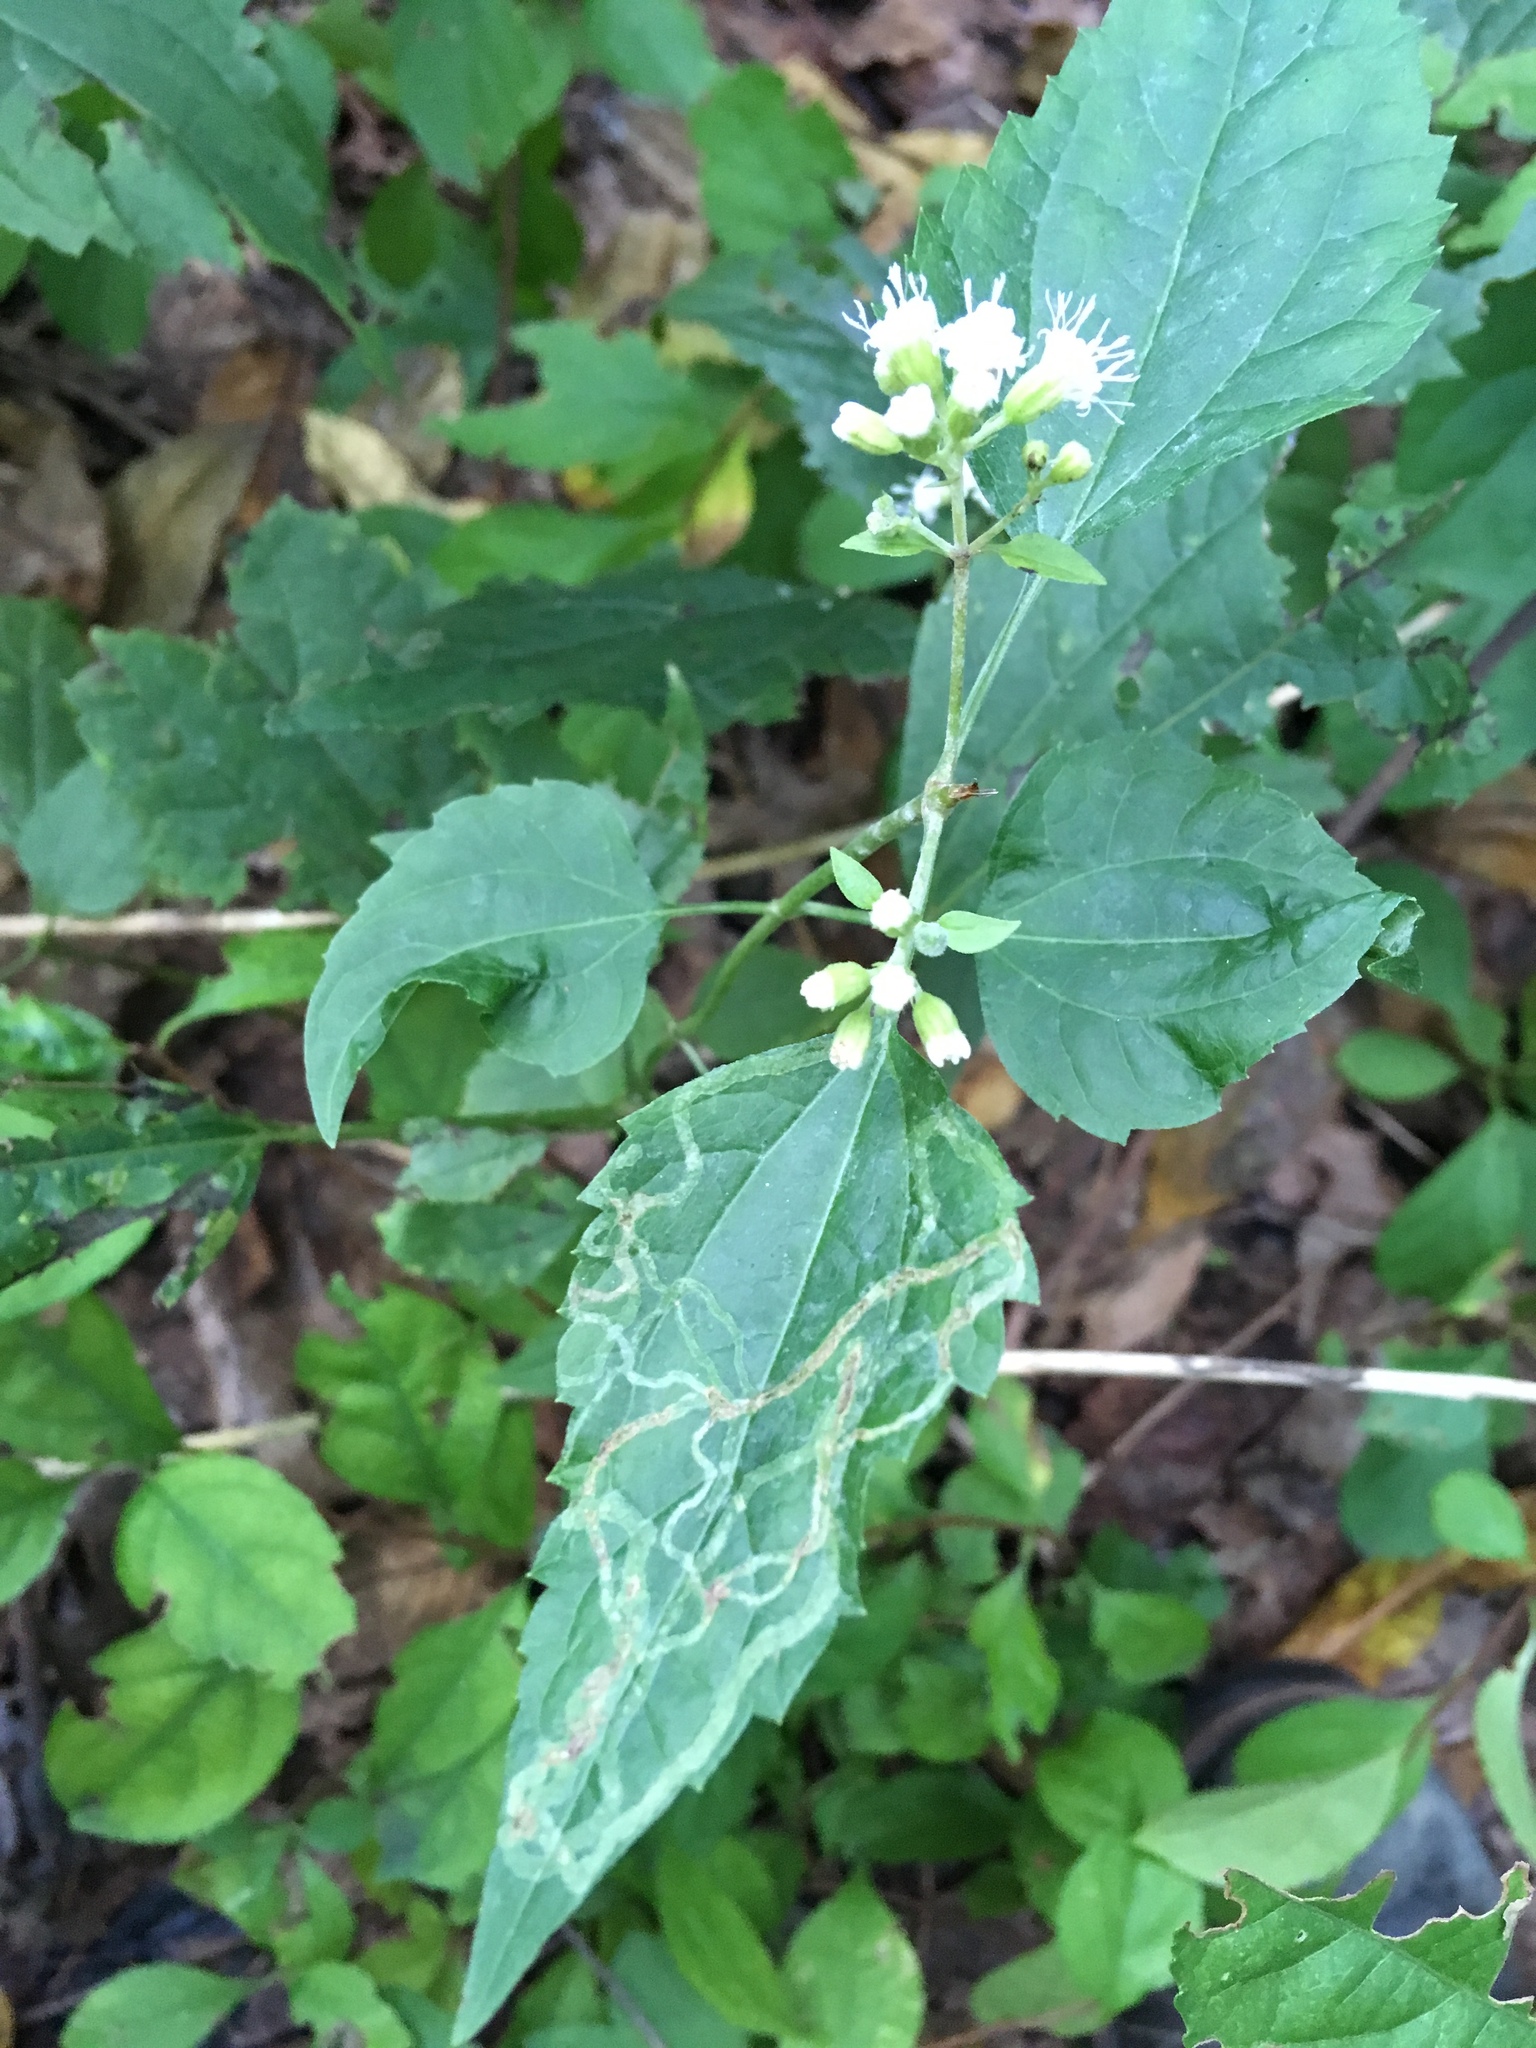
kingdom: Plantae
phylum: Tracheophyta
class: Magnoliopsida
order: Asterales
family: Asteraceae
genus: Ageratina
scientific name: Ageratina altissima
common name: White snakeroot
